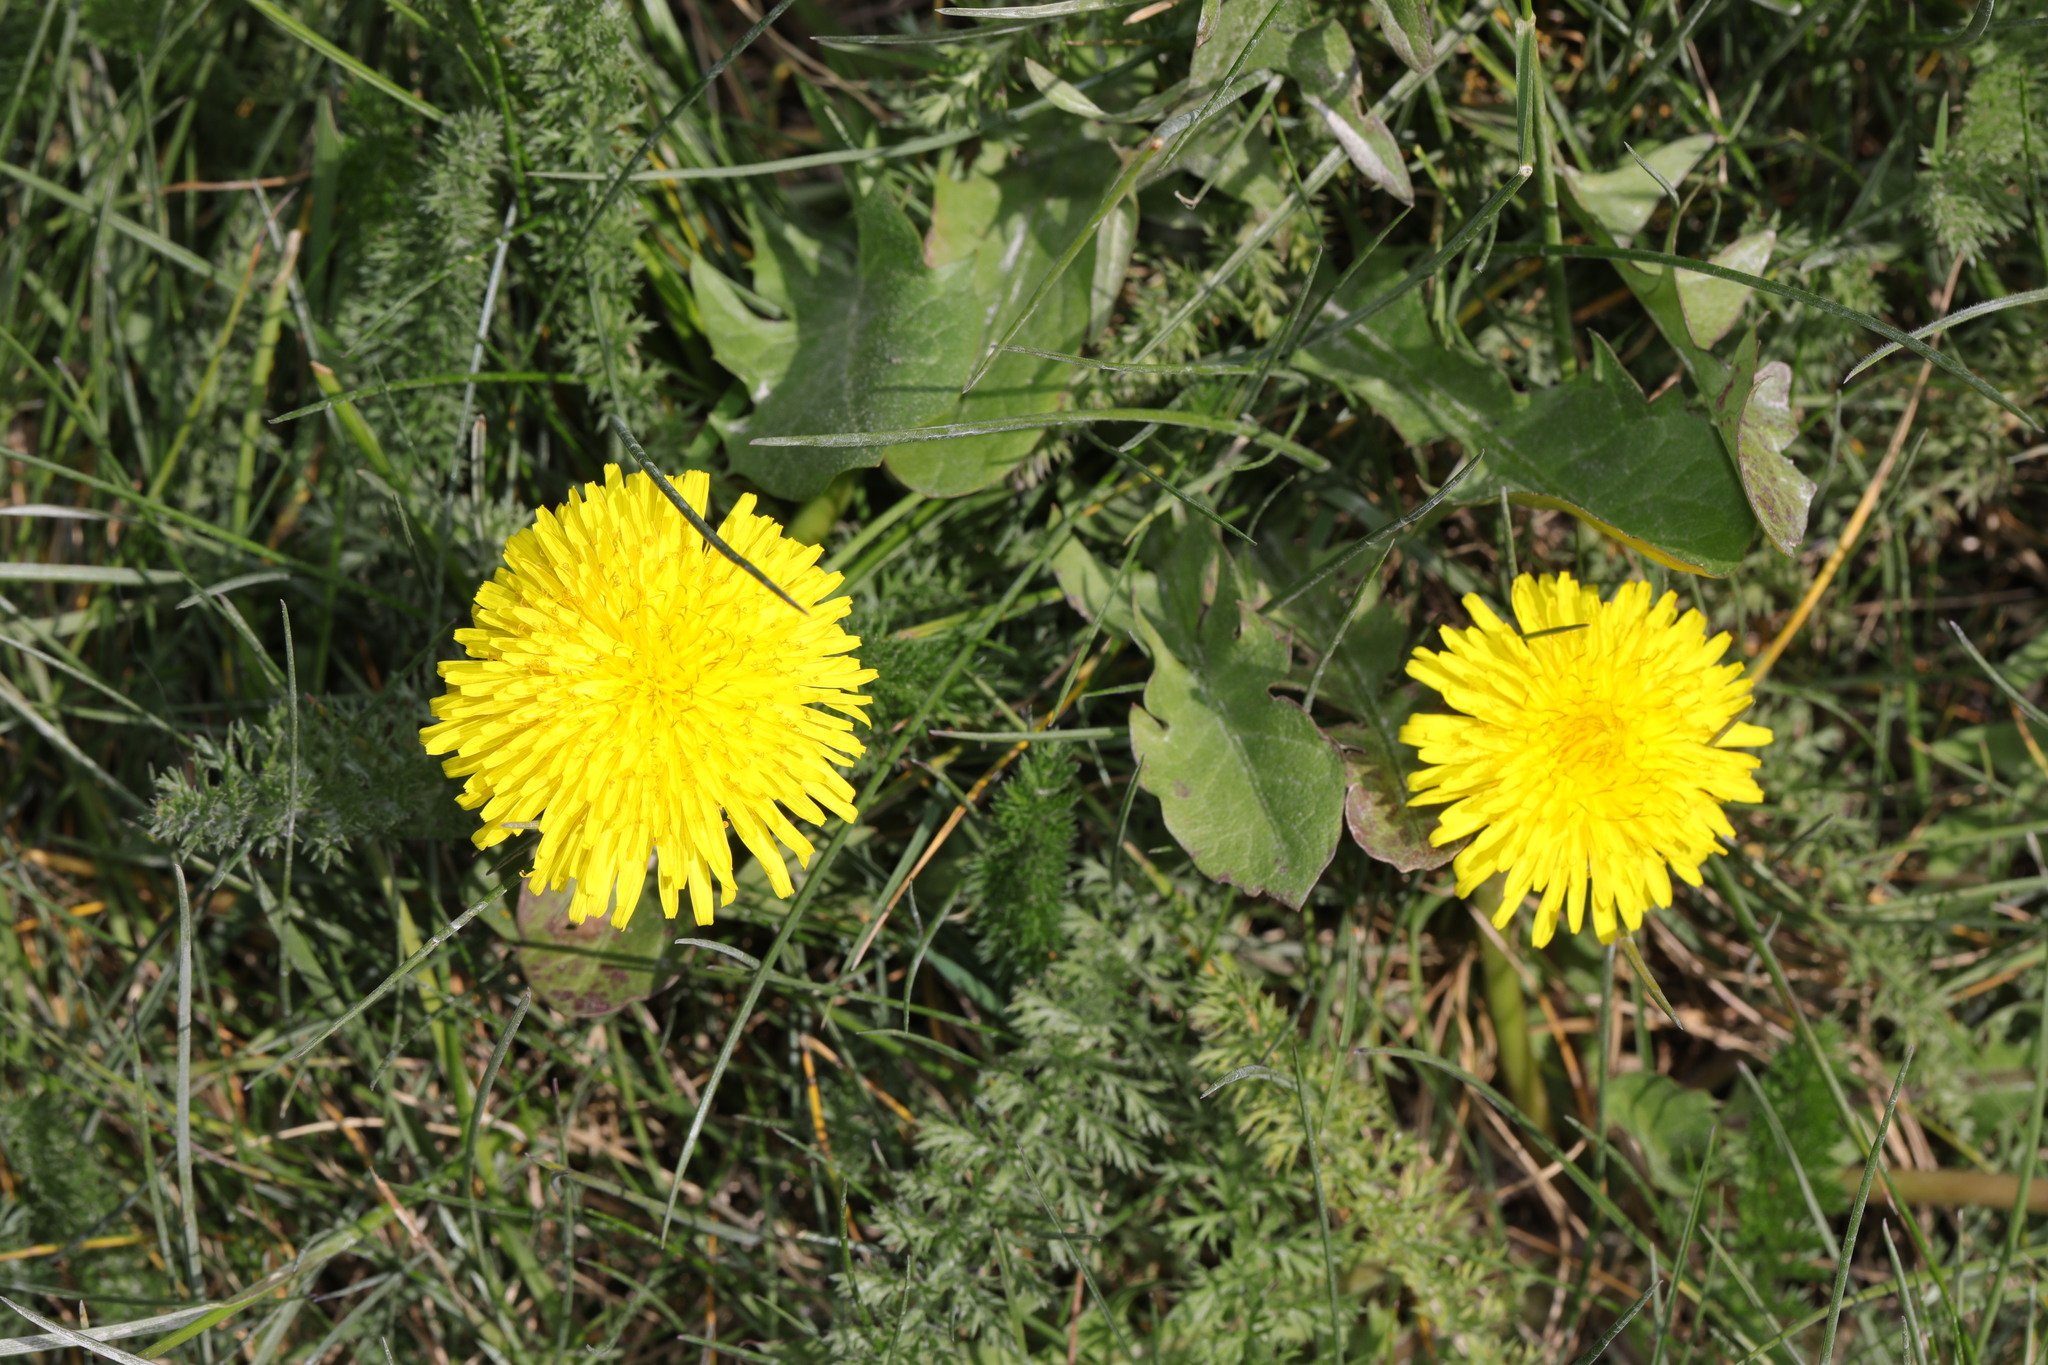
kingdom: Plantae
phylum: Tracheophyta
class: Magnoliopsida
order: Asterales
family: Asteraceae
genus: Taraxacum
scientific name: Taraxacum officinale
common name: Common dandelion
